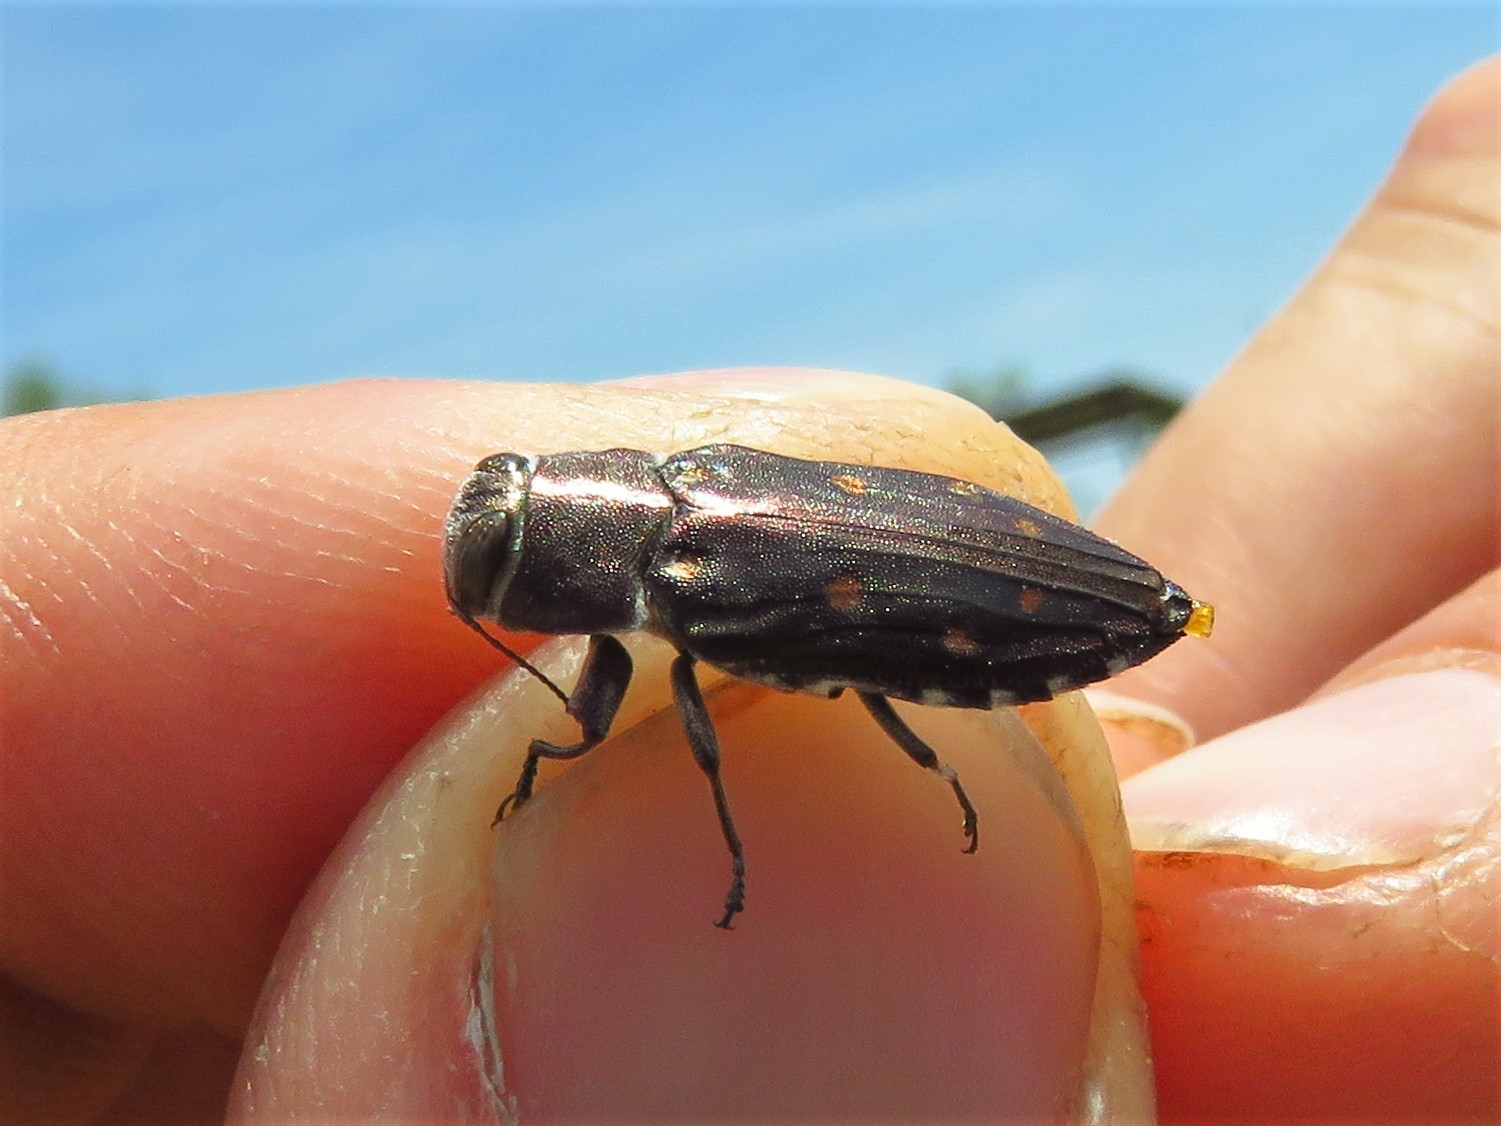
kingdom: Animalia
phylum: Arthropoda
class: Insecta
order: Coleoptera
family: Buprestidae
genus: Chrysobothris
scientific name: Chrysobothris octocola
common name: Jewel beetle
